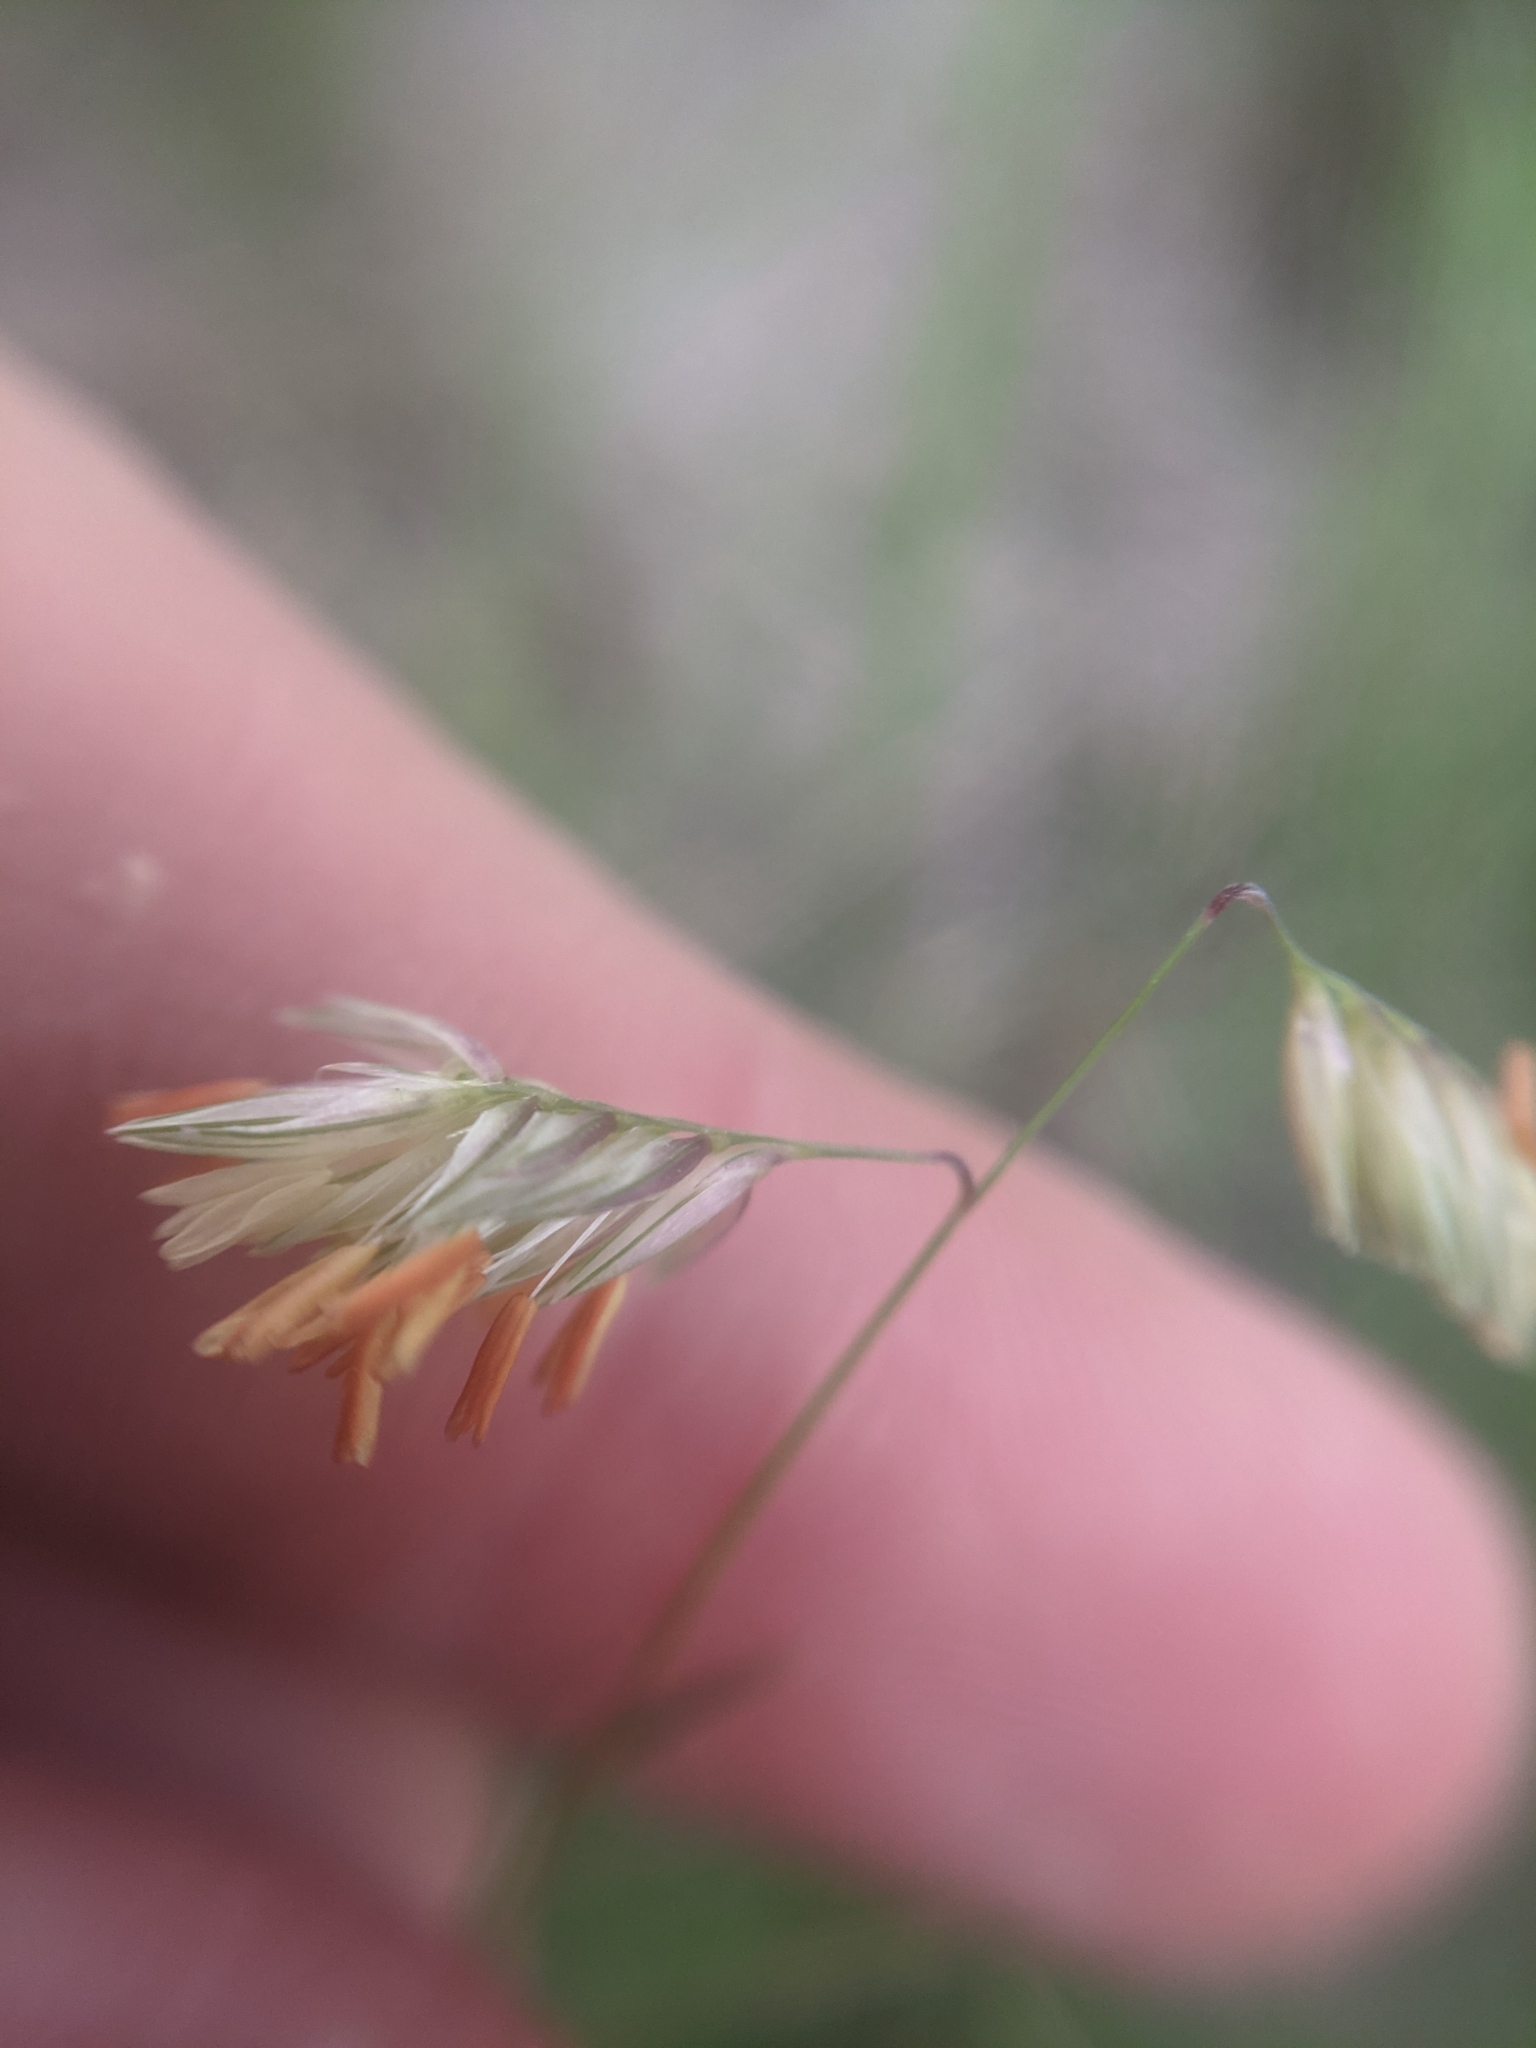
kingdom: Plantae
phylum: Tracheophyta
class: Liliopsida
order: Poales
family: Poaceae
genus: Bouteloua
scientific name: Bouteloua dactyloides
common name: Buffalo grass
